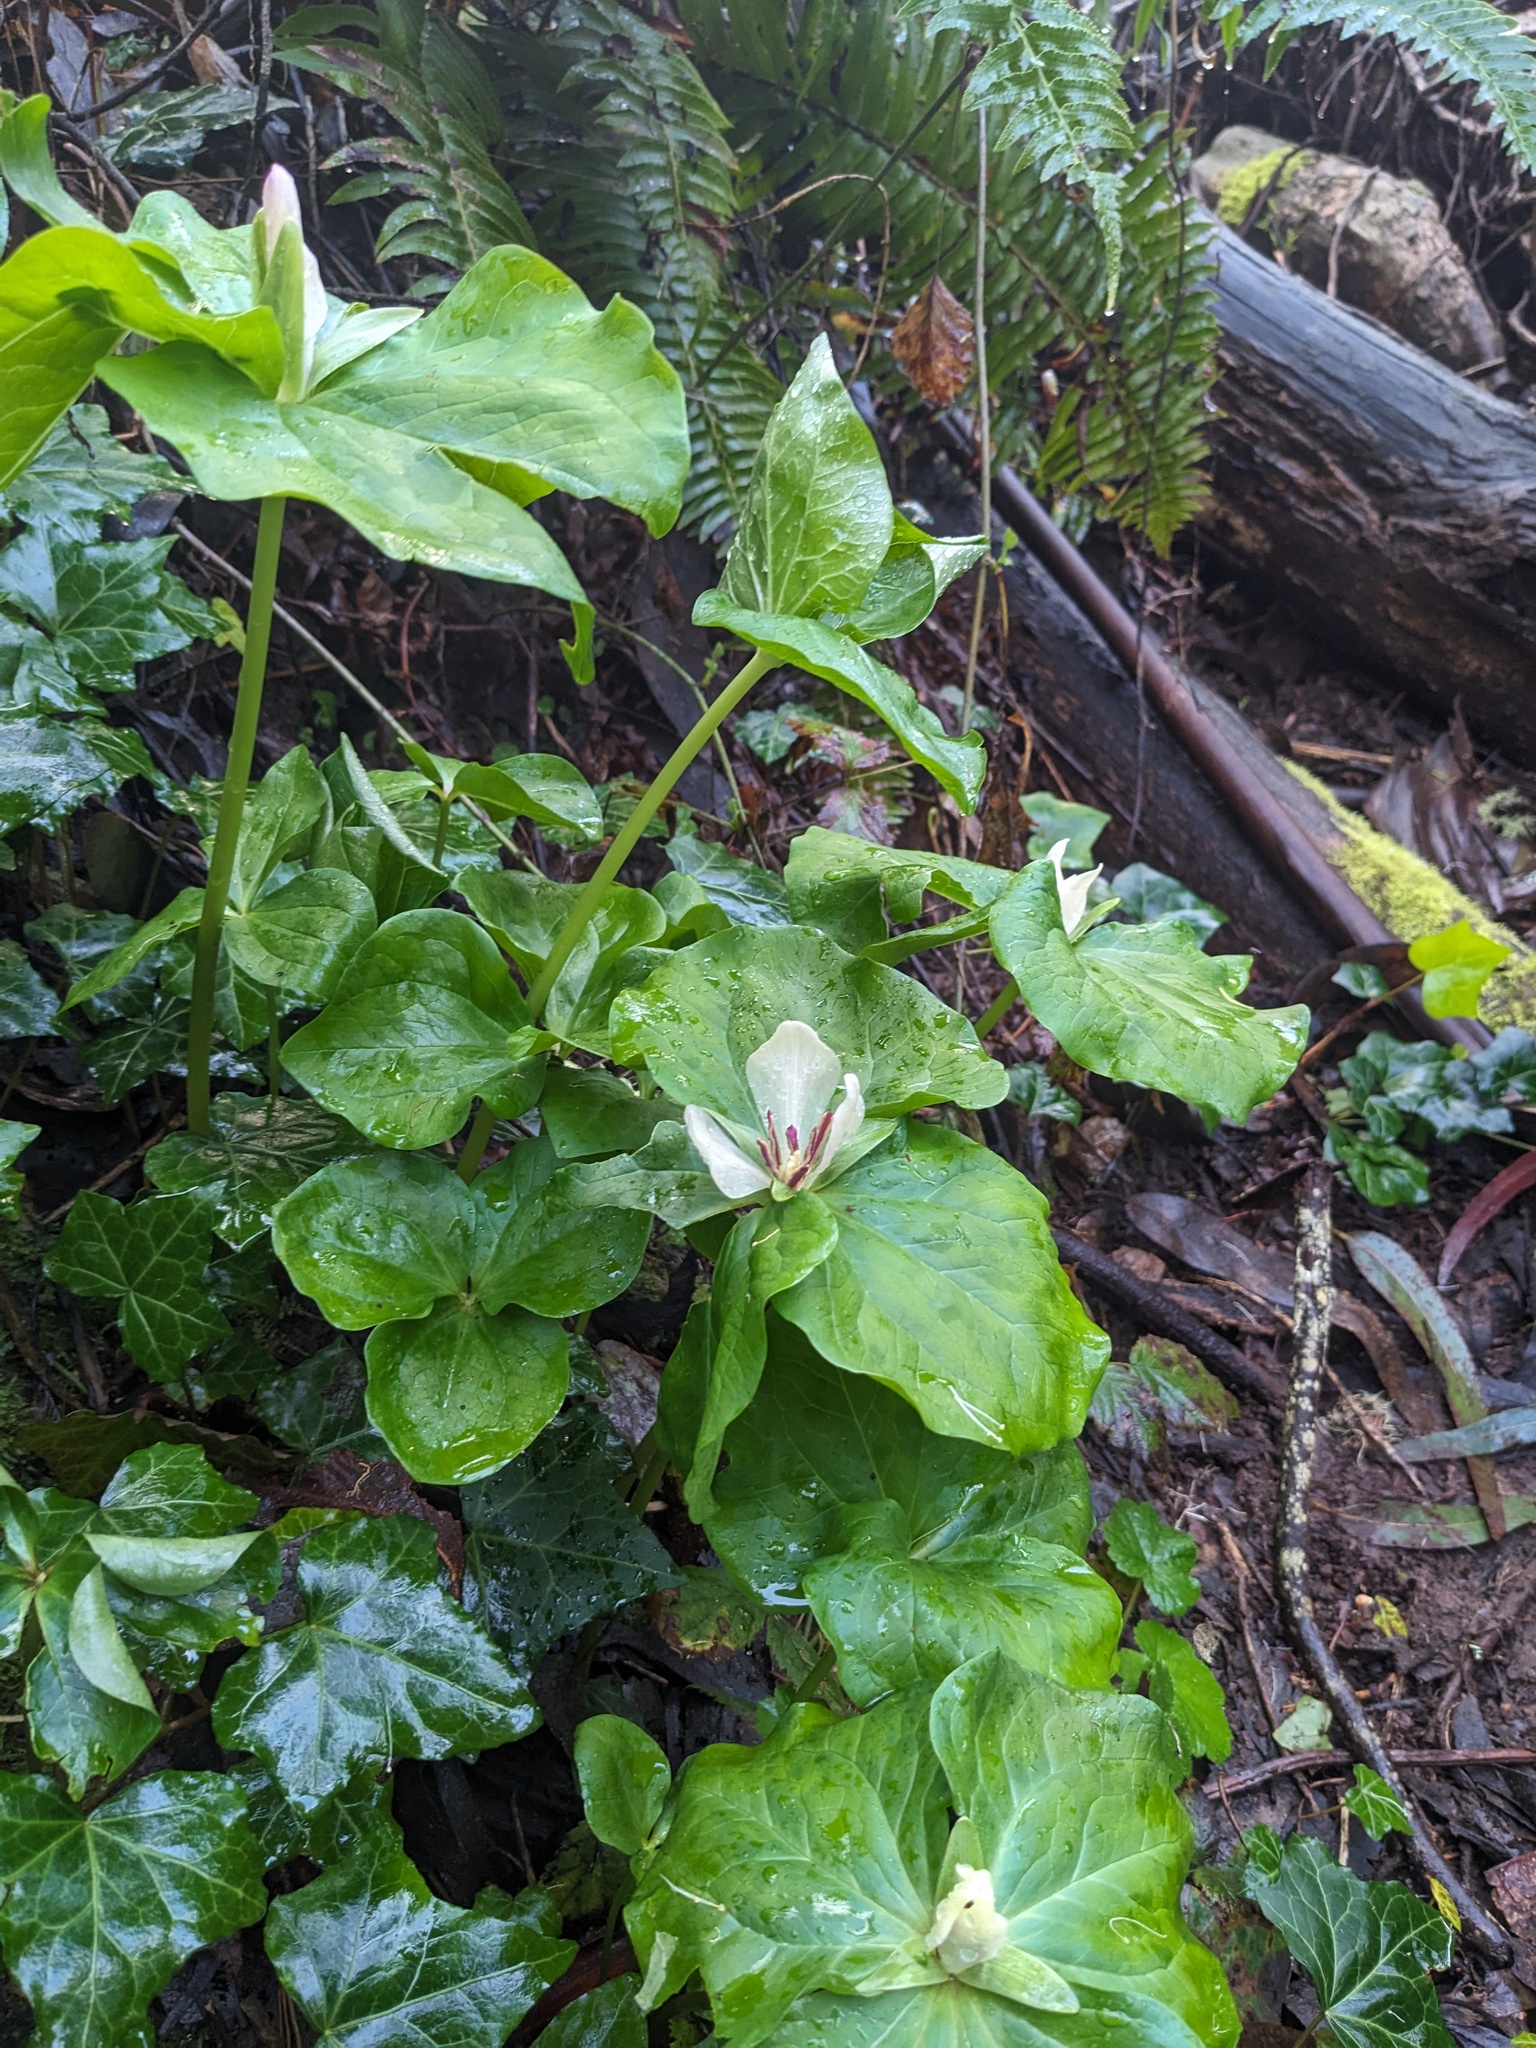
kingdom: Plantae
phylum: Tracheophyta
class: Liliopsida
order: Liliales
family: Melanthiaceae
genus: Trillium
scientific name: Trillium chloropetalum
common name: Giant trillium
